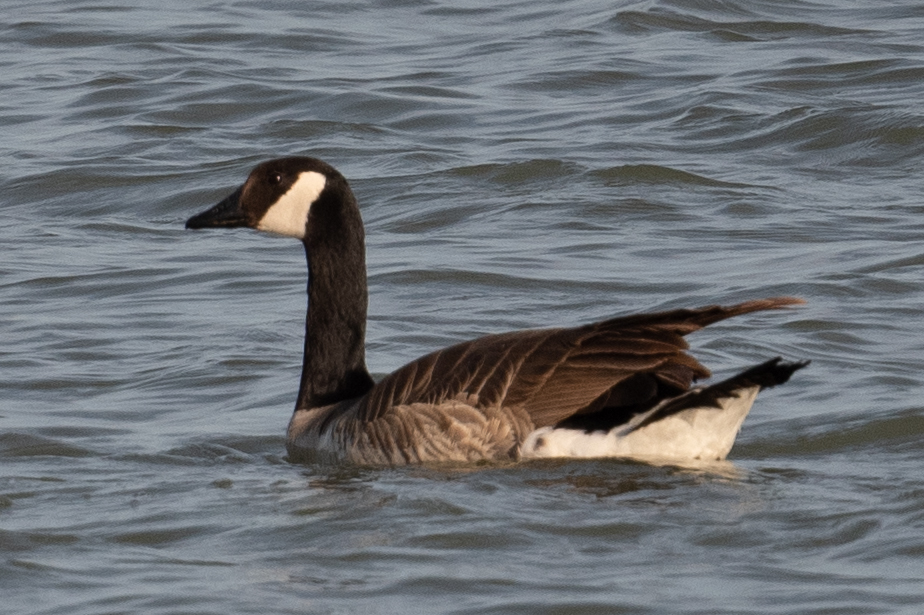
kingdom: Animalia
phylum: Chordata
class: Aves
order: Anseriformes
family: Anatidae
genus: Branta
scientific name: Branta canadensis
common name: Canada goose
